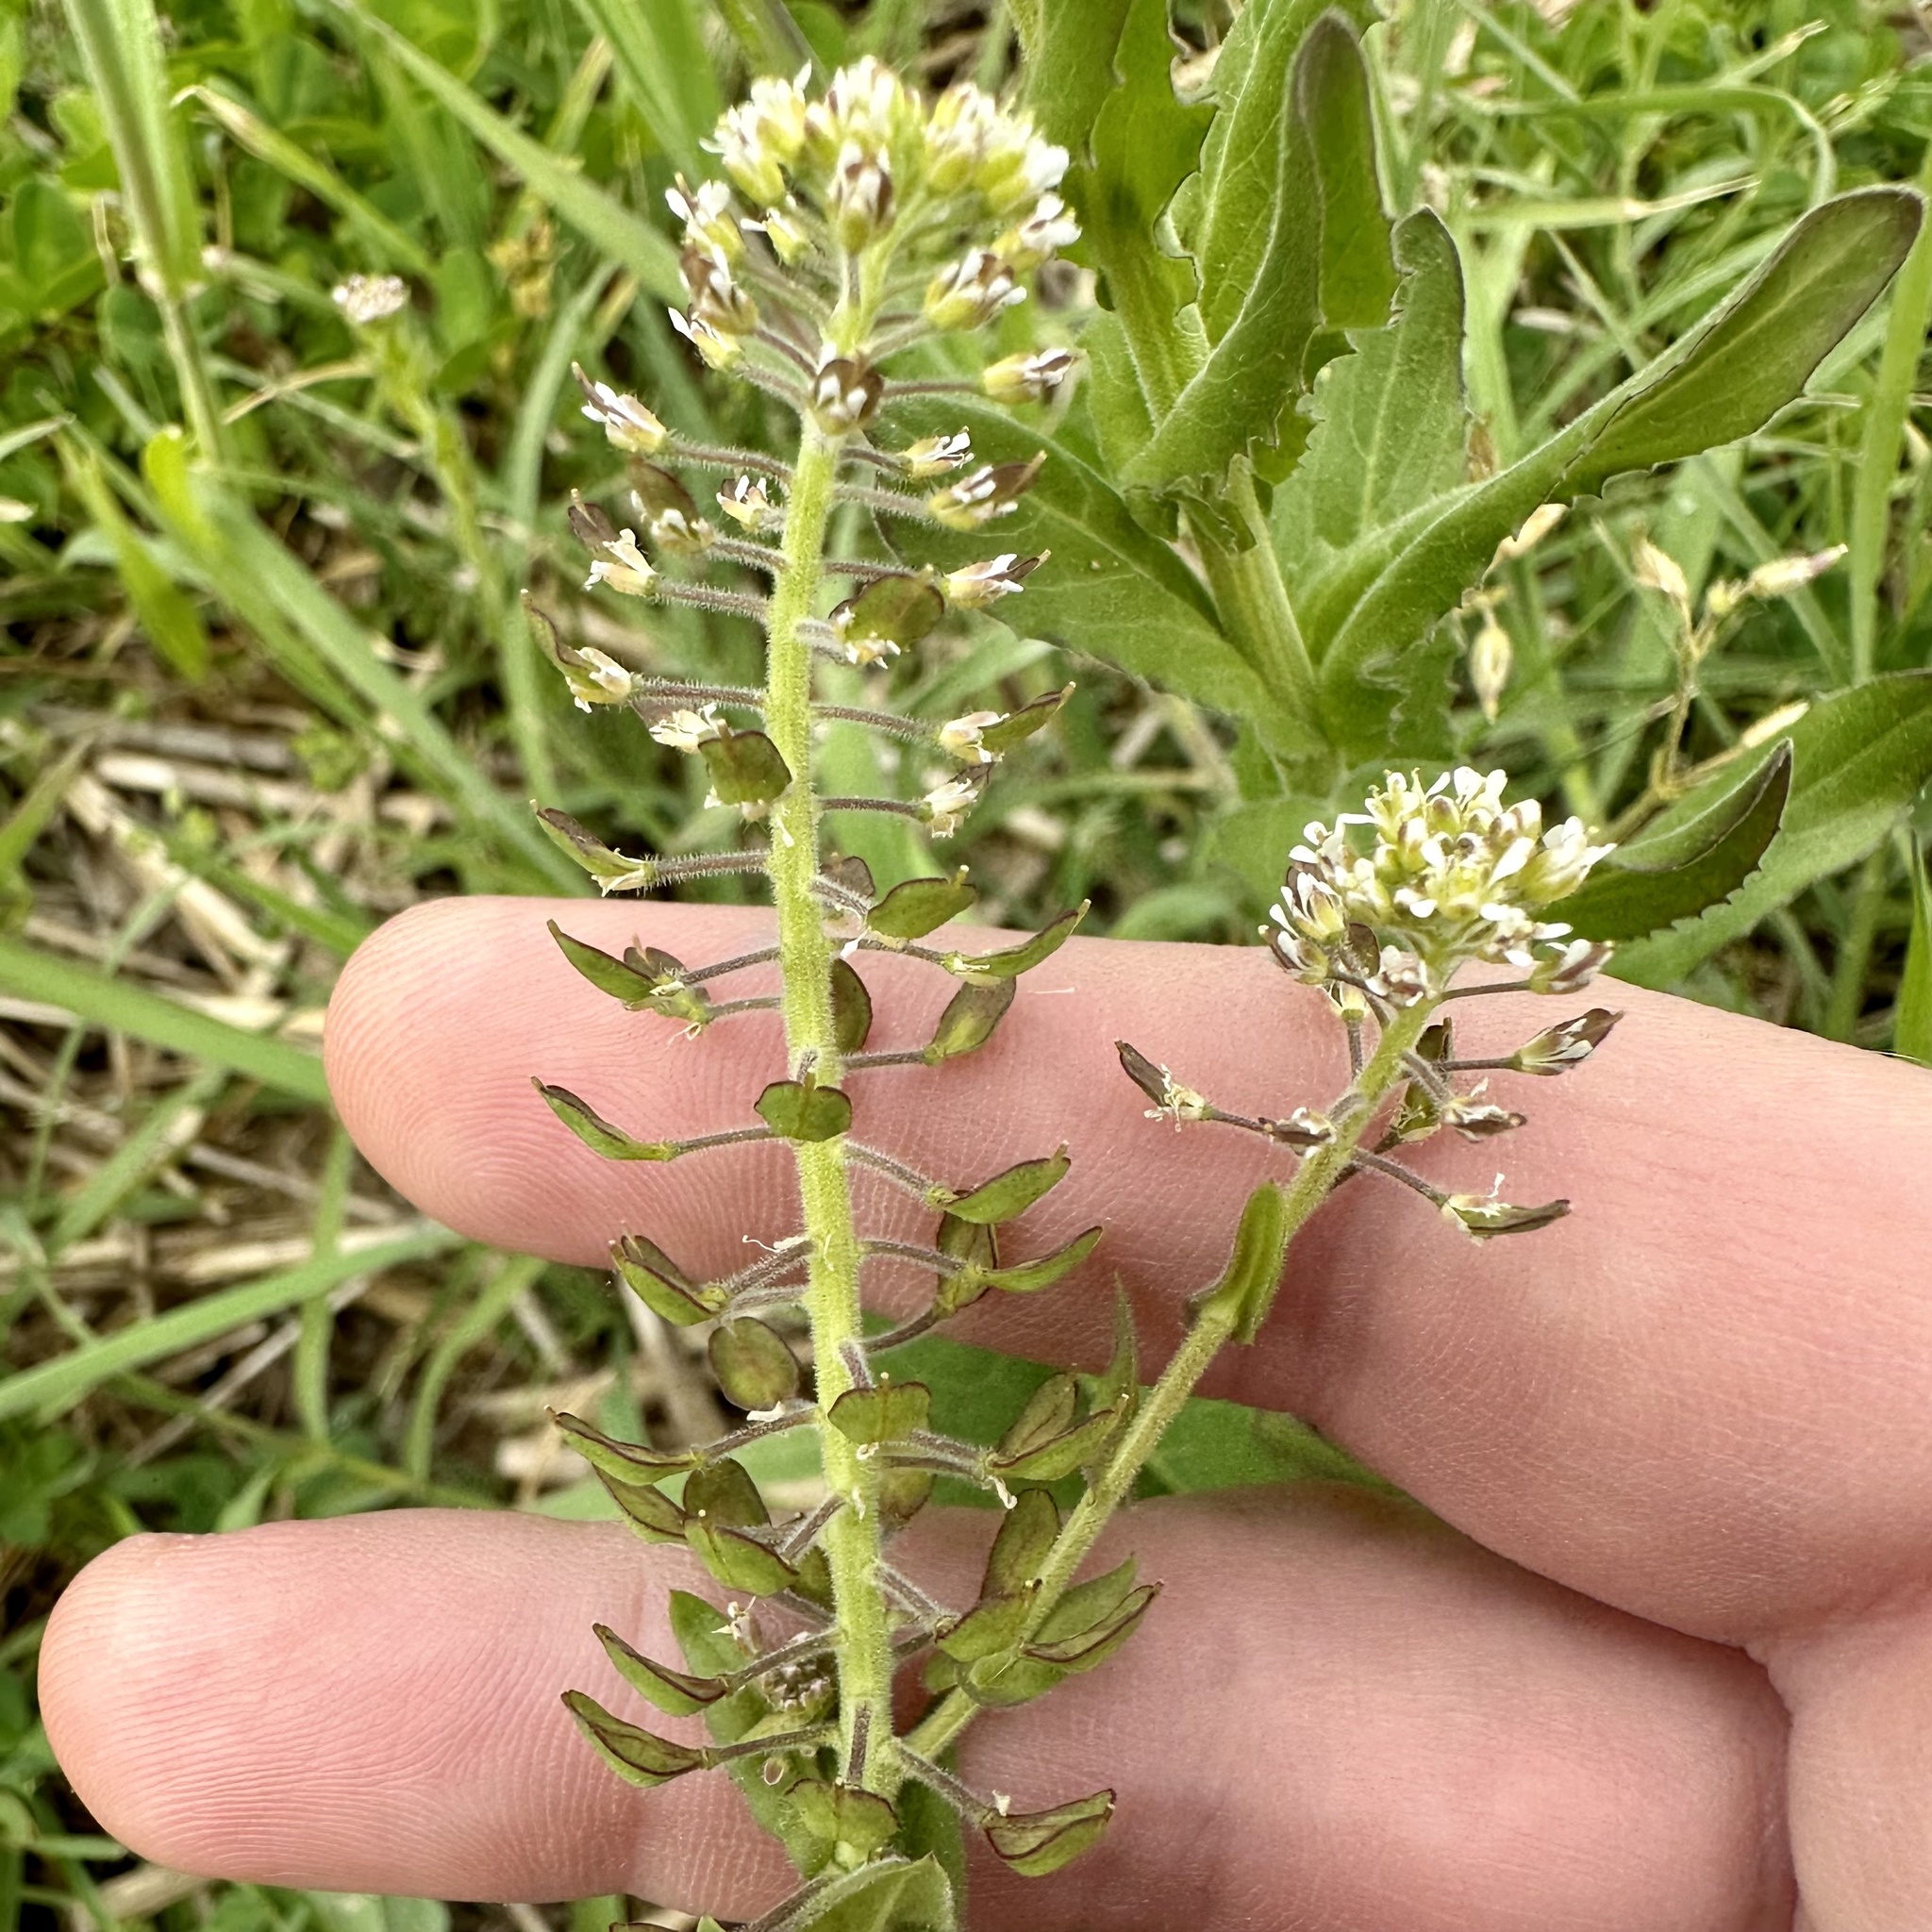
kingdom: Plantae
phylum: Tracheophyta
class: Magnoliopsida
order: Brassicales
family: Brassicaceae
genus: Lepidium
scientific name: Lepidium campestre
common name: Field pepperwort
